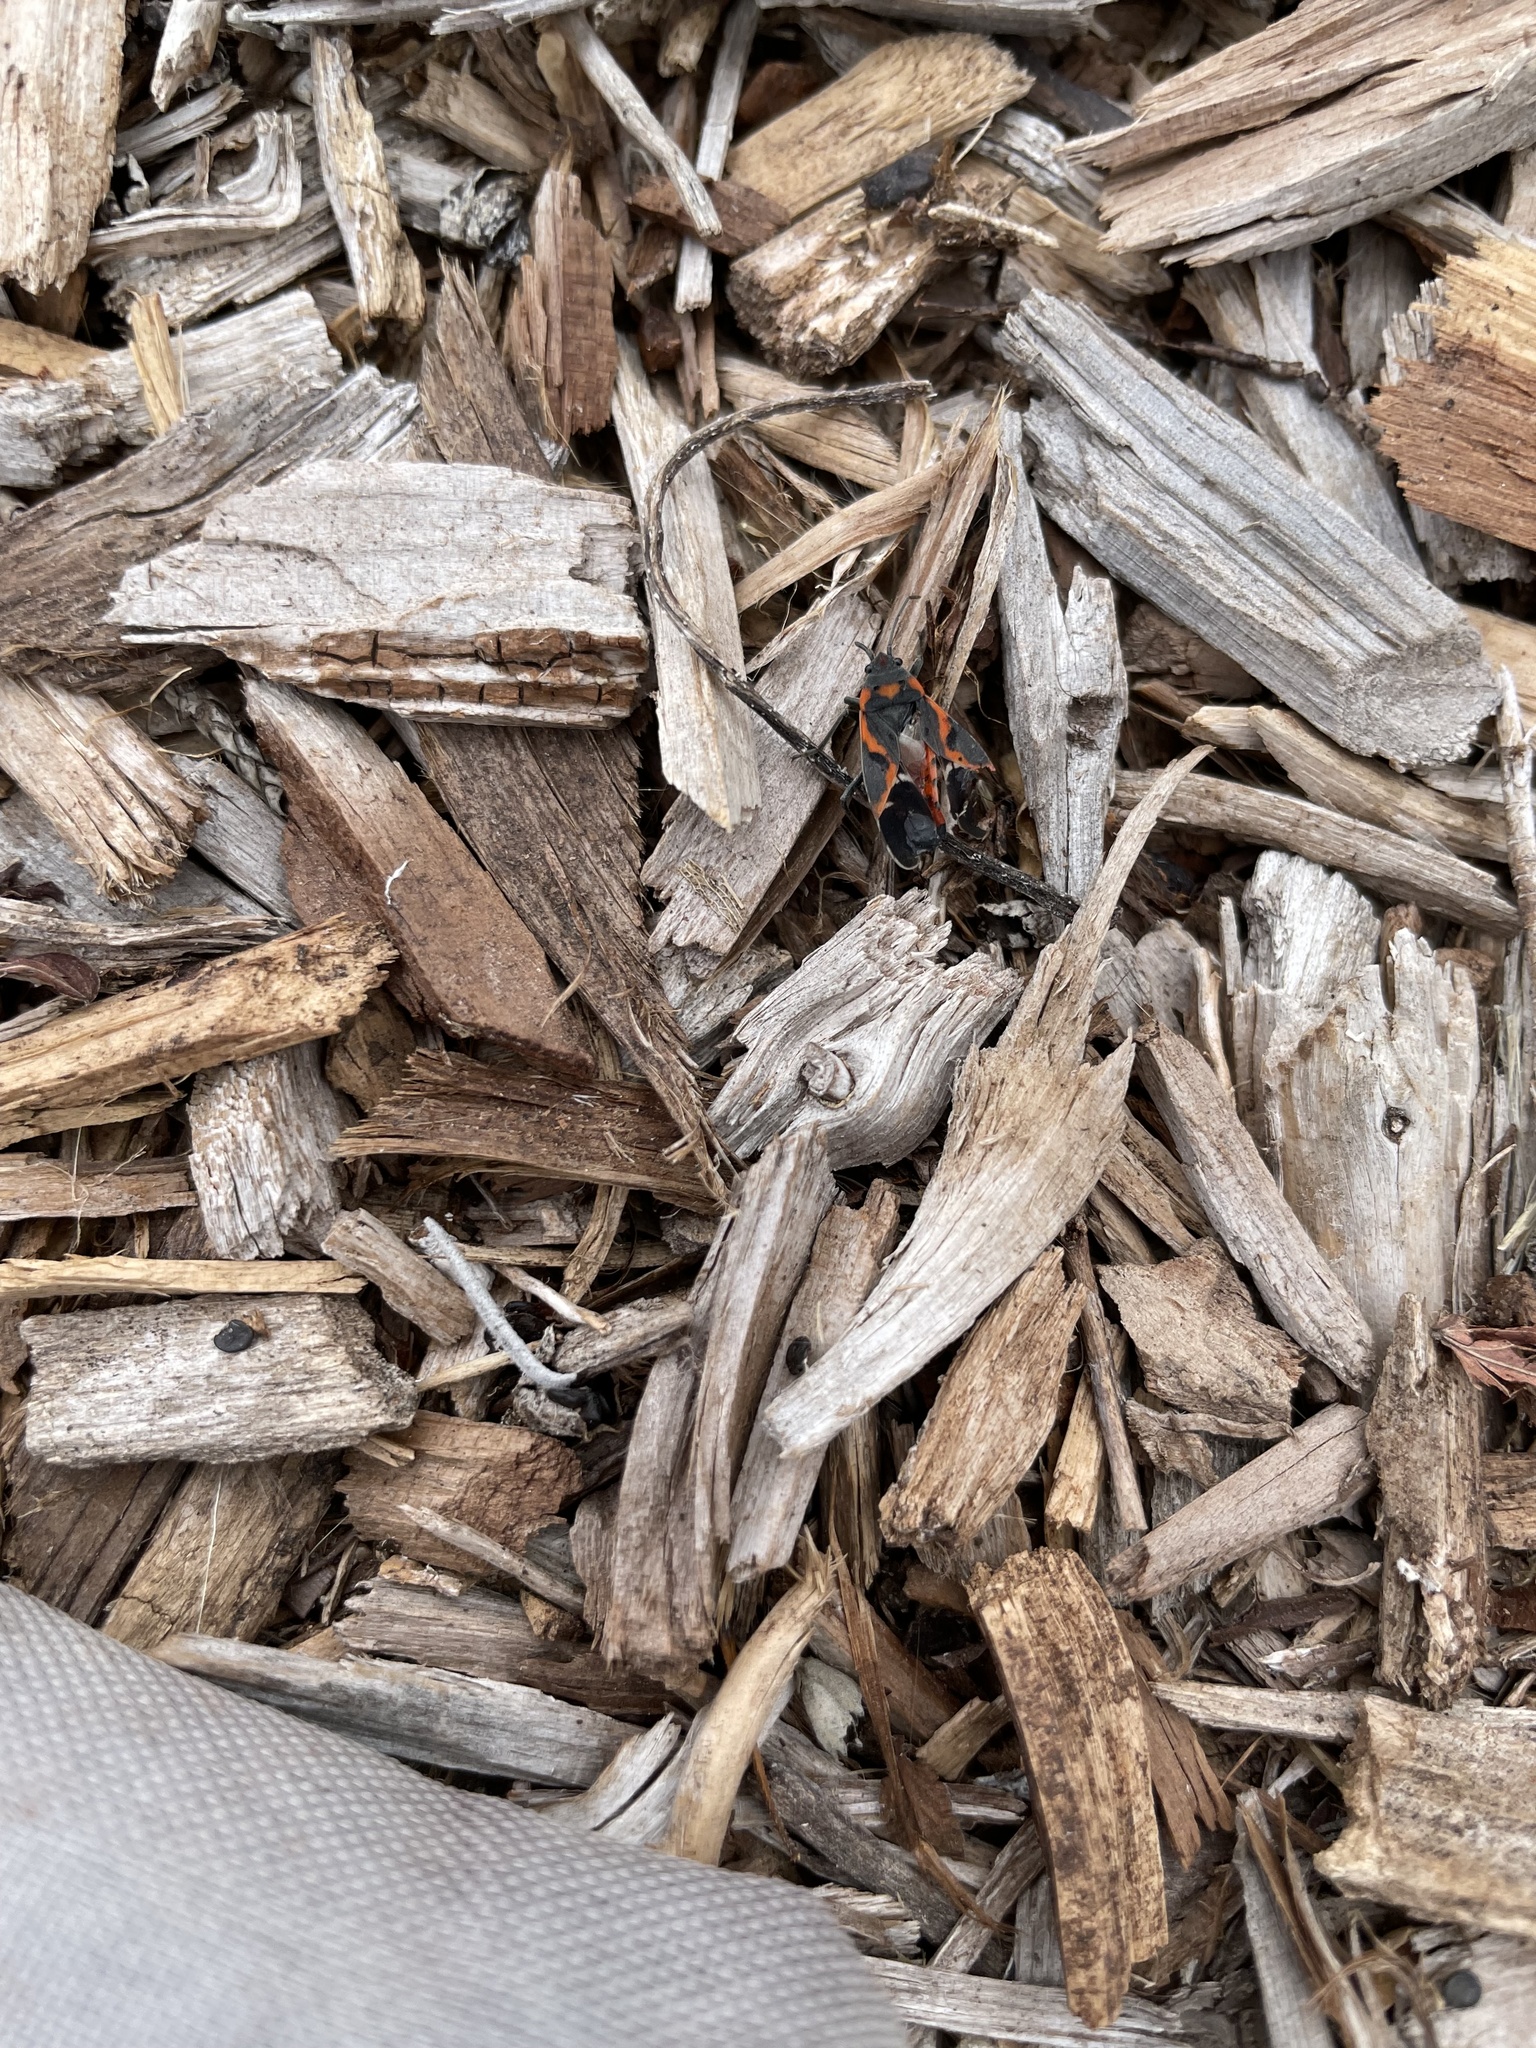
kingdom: Animalia
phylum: Arthropoda
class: Insecta
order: Hemiptera
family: Lygaeidae
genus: Lygaeus
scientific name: Lygaeus kalmii
